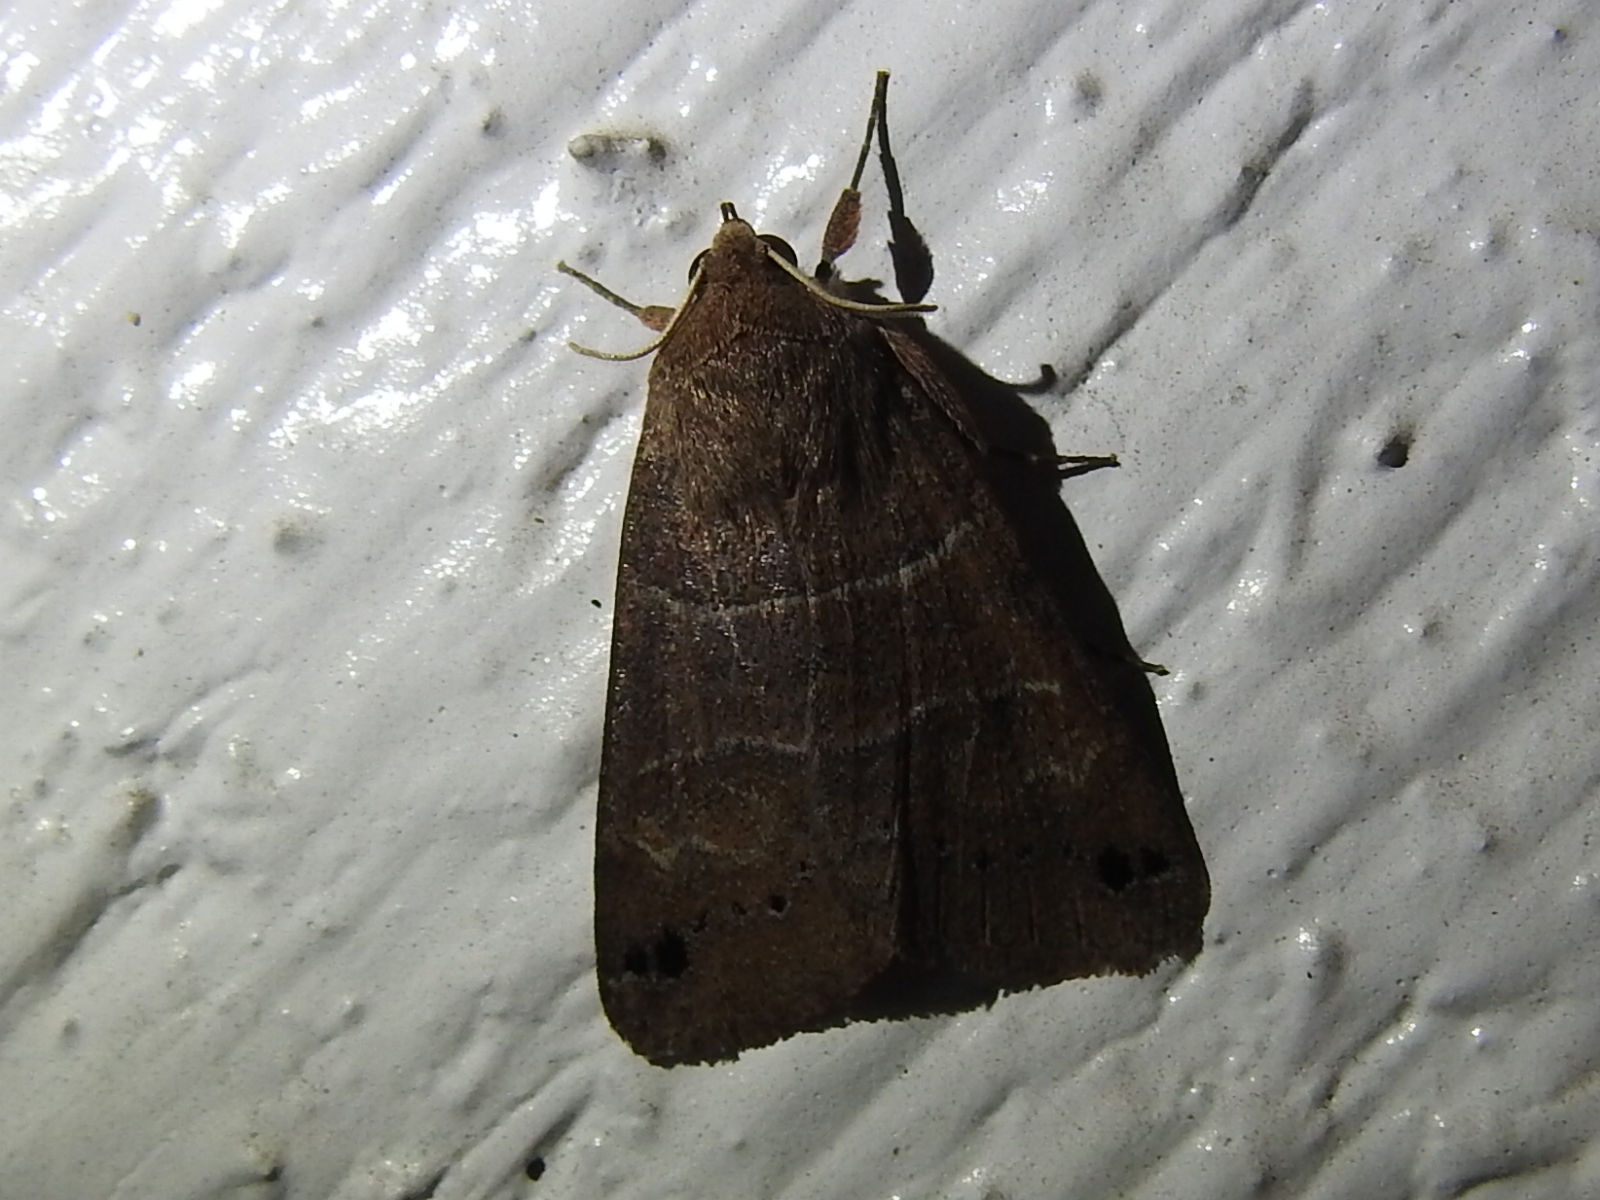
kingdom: Animalia
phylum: Arthropoda
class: Insecta
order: Lepidoptera
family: Erebidae
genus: Cissusa
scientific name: Cissusa spadix
